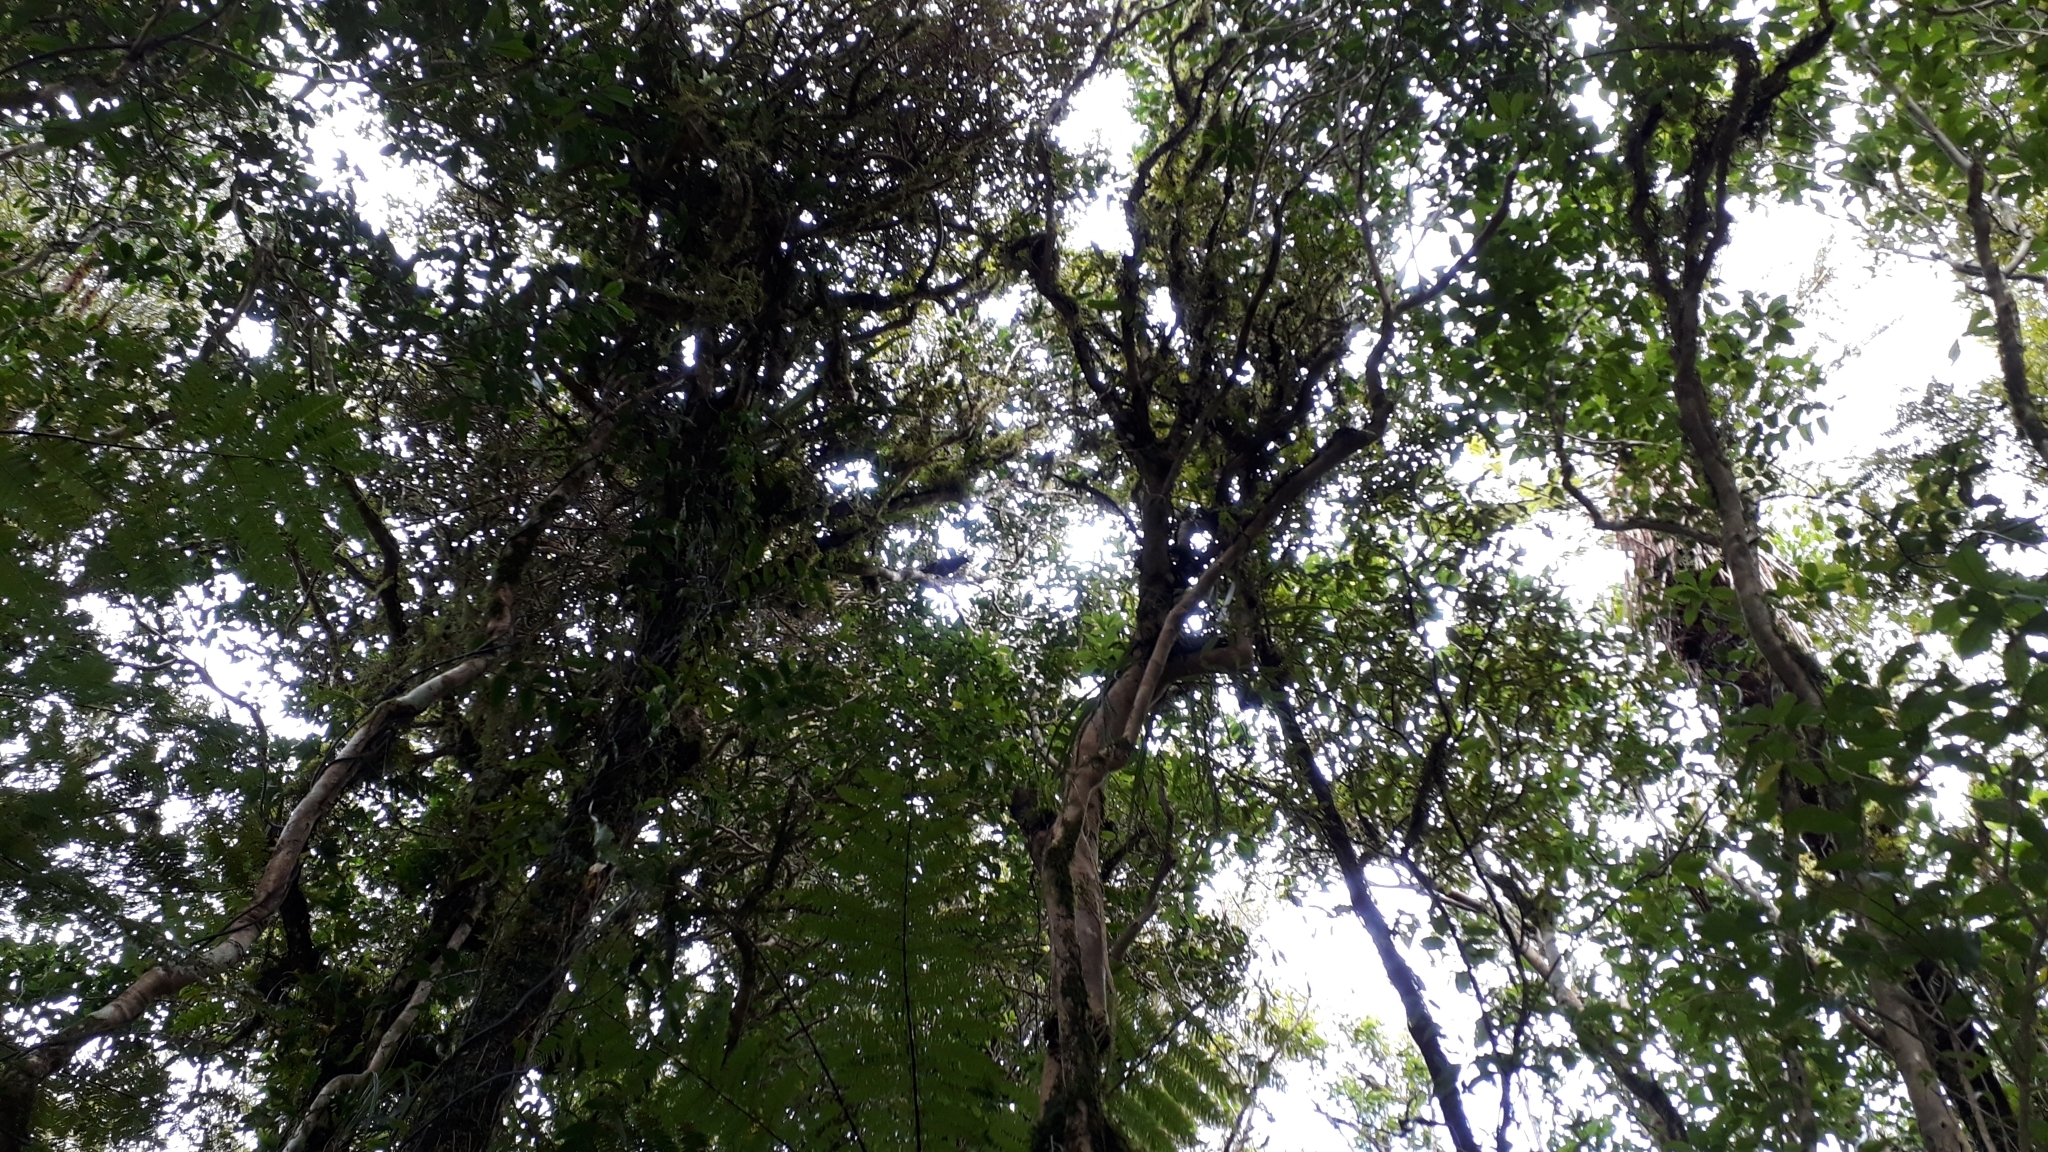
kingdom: Animalia
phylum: Chordata
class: Aves
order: Passeriformes
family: Callaeatidae
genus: Callaeas
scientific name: Callaeas cinereus
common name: South island kokako
